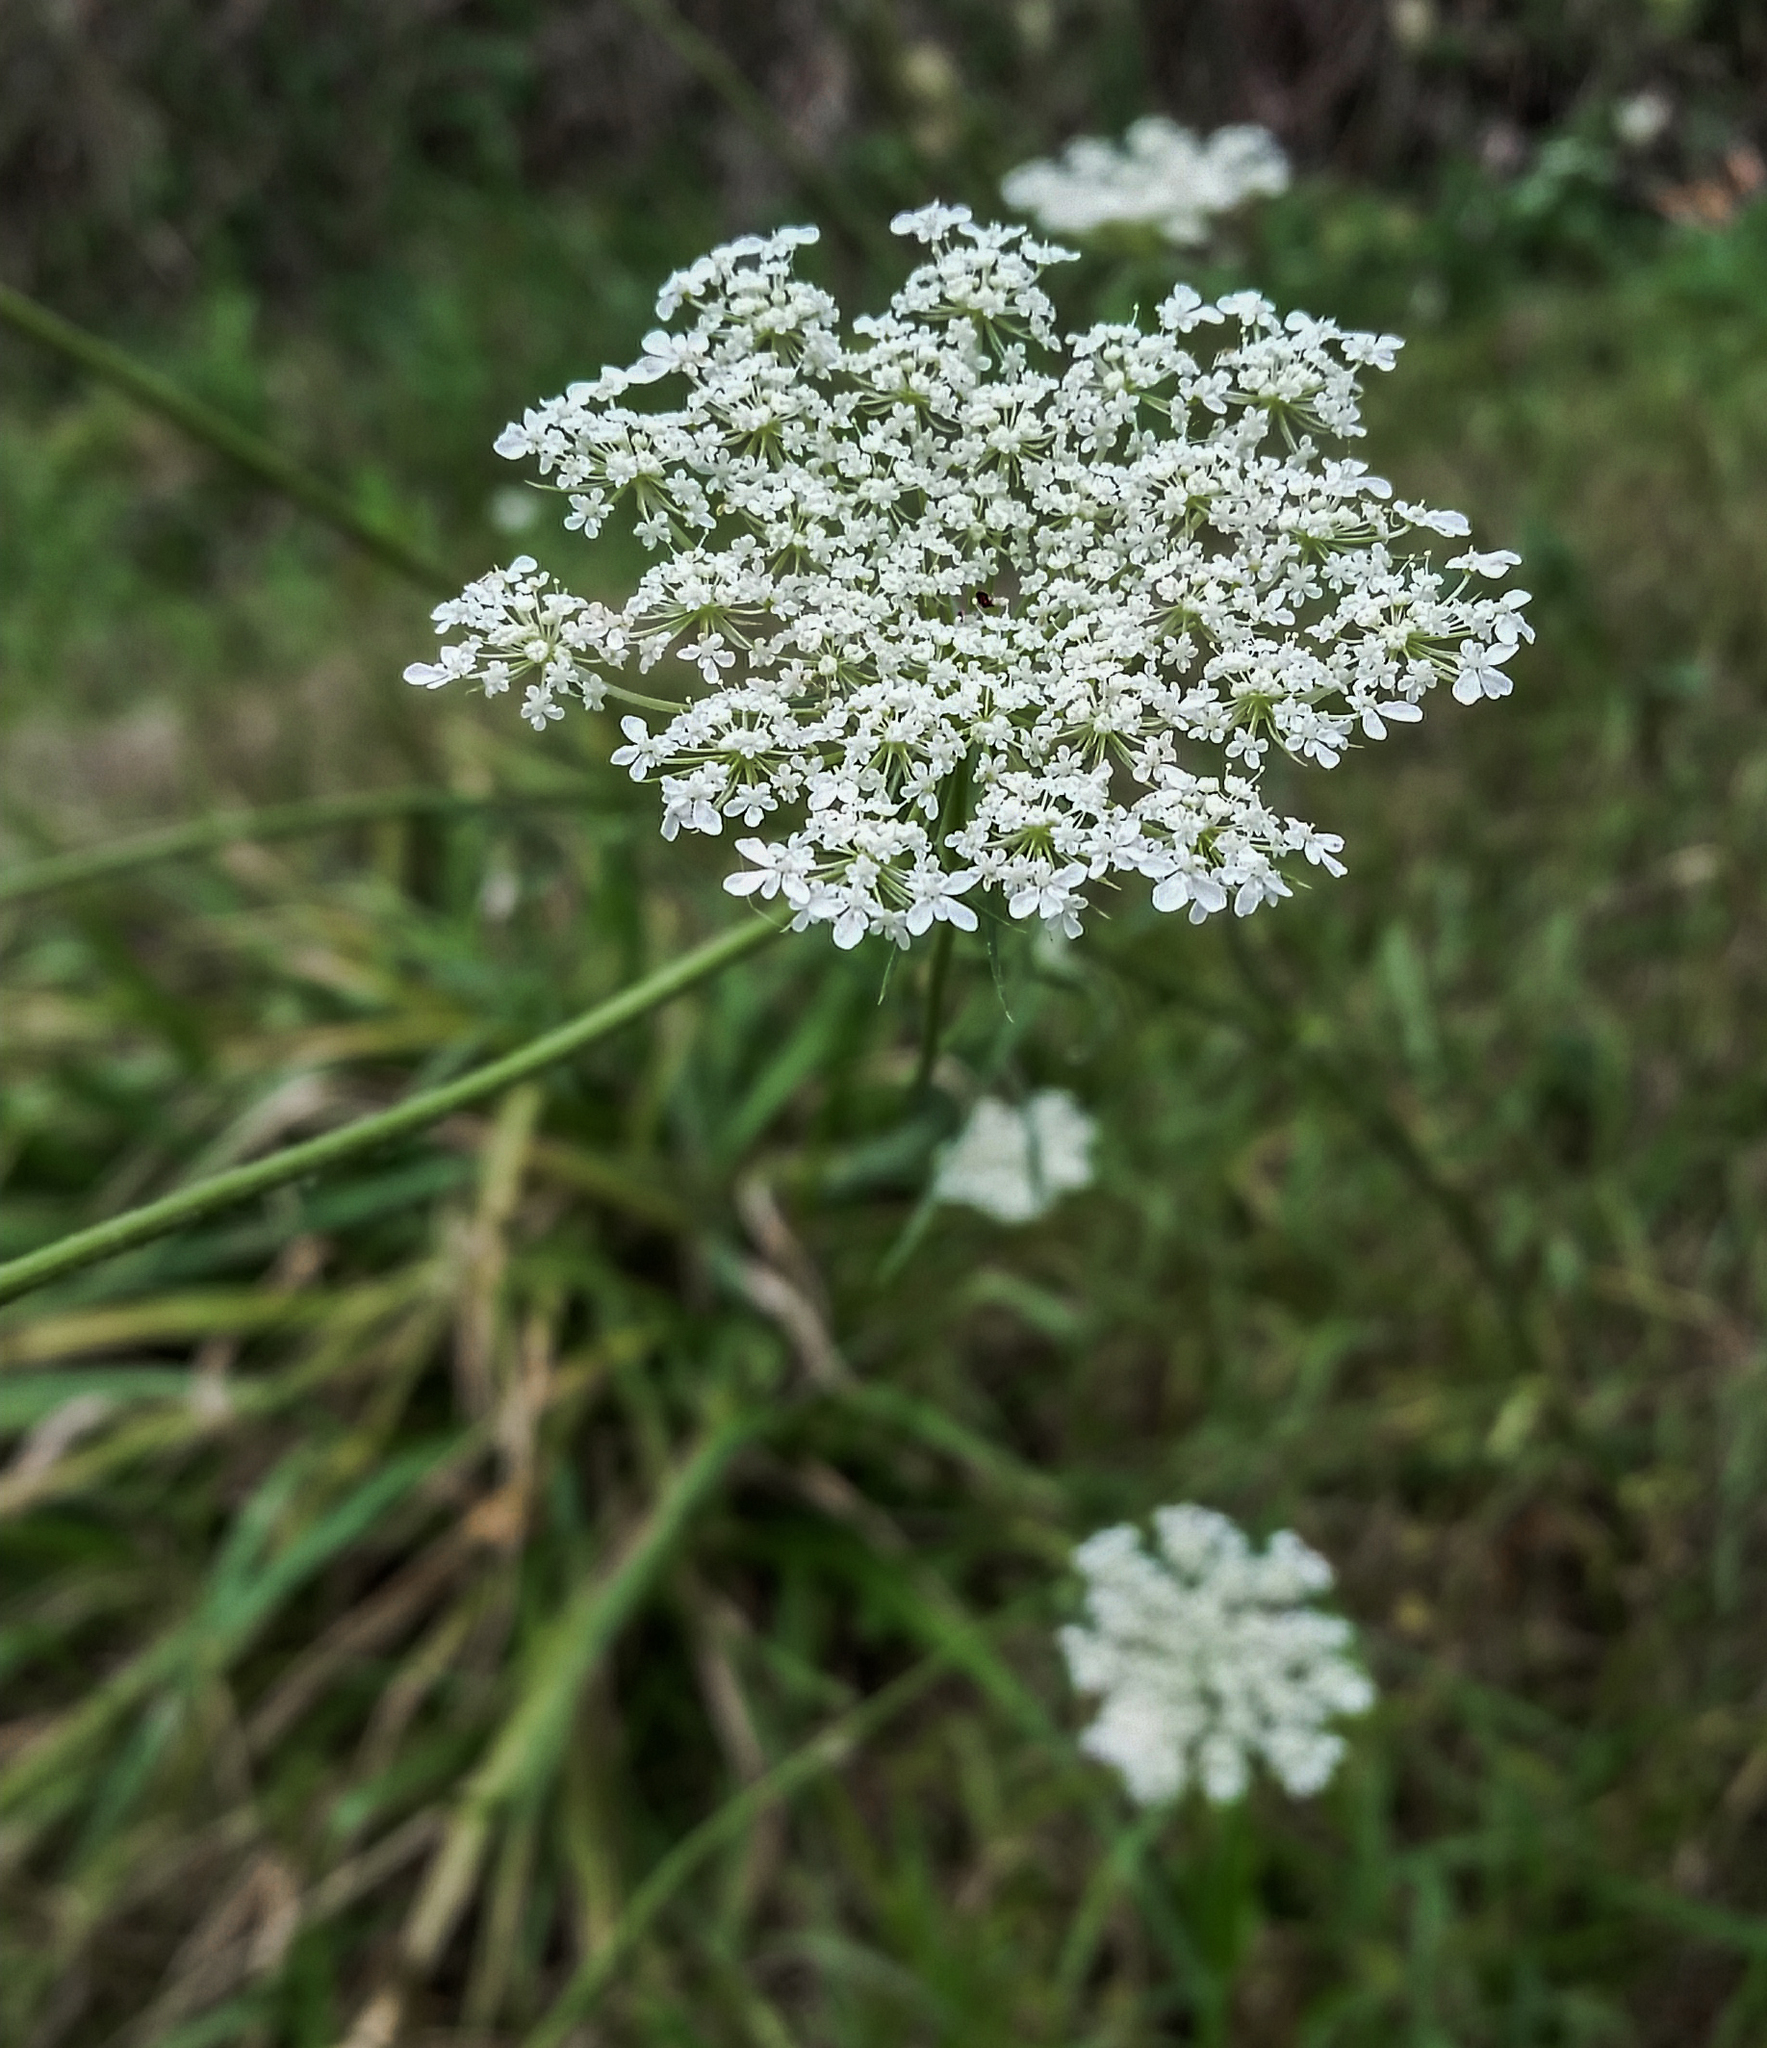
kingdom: Plantae
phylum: Tracheophyta
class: Magnoliopsida
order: Apiales
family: Apiaceae
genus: Daucus
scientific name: Daucus carota
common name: Wild carrot
